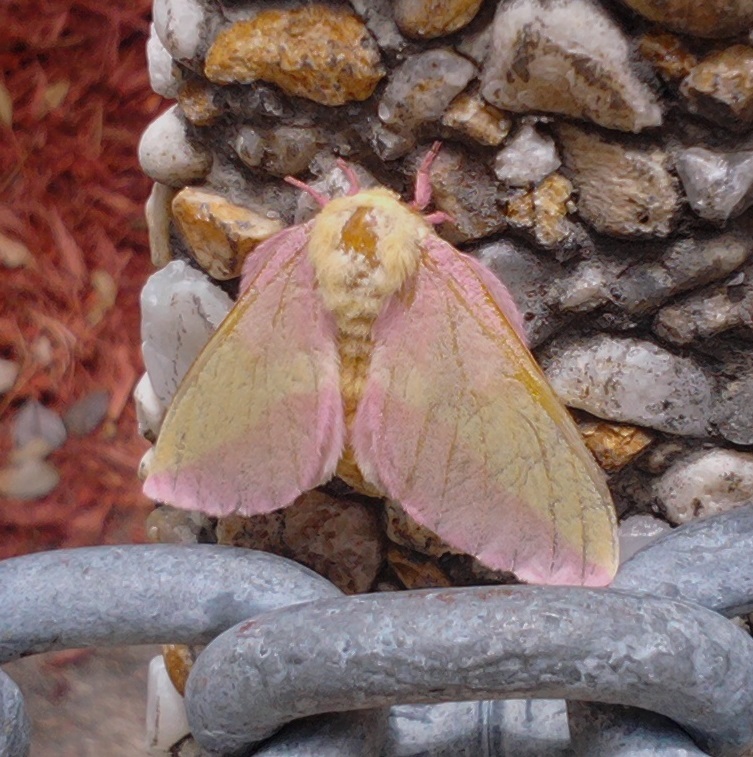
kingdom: Animalia
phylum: Arthropoda
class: Insecta
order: Lepidoptera
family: Saturniidae
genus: Dryocampa
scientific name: Dryocampa rubicunda
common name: Rosy maple moth
